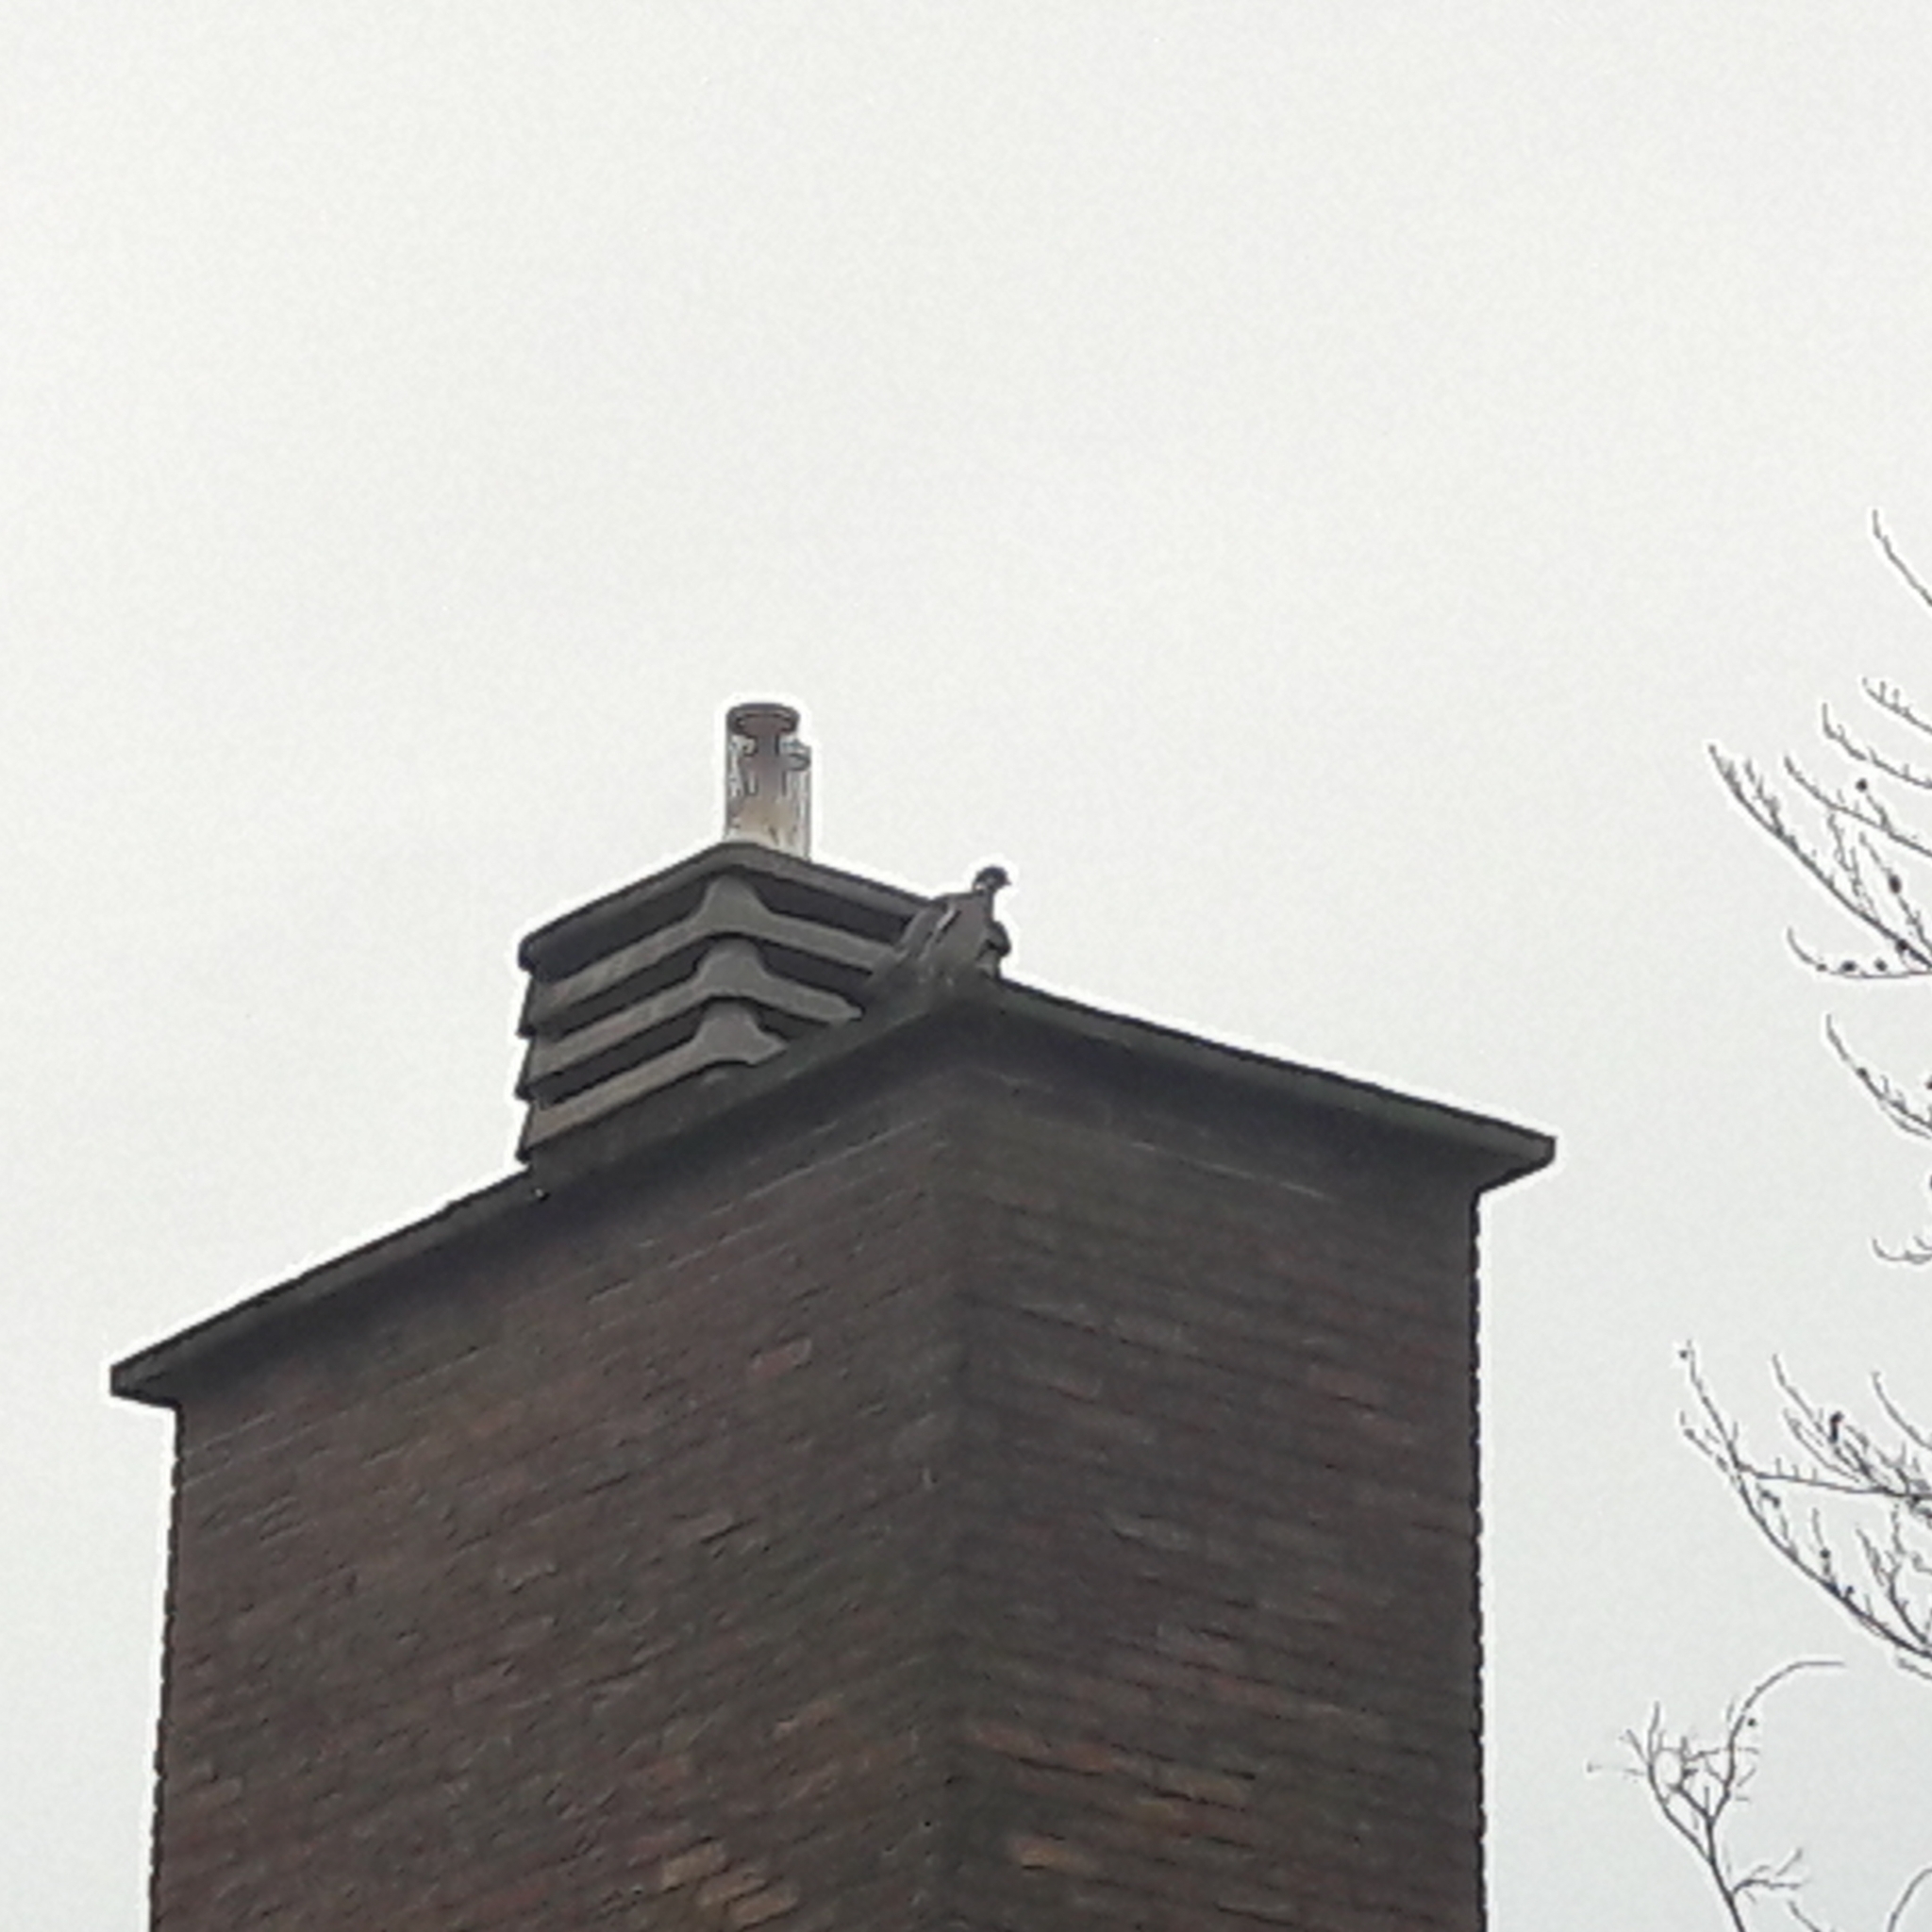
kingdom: Animalia
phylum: Chordata
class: Aves
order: Columbiformes
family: Columbidae
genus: Columba
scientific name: Columba palumbus
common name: Common wood pigeon
